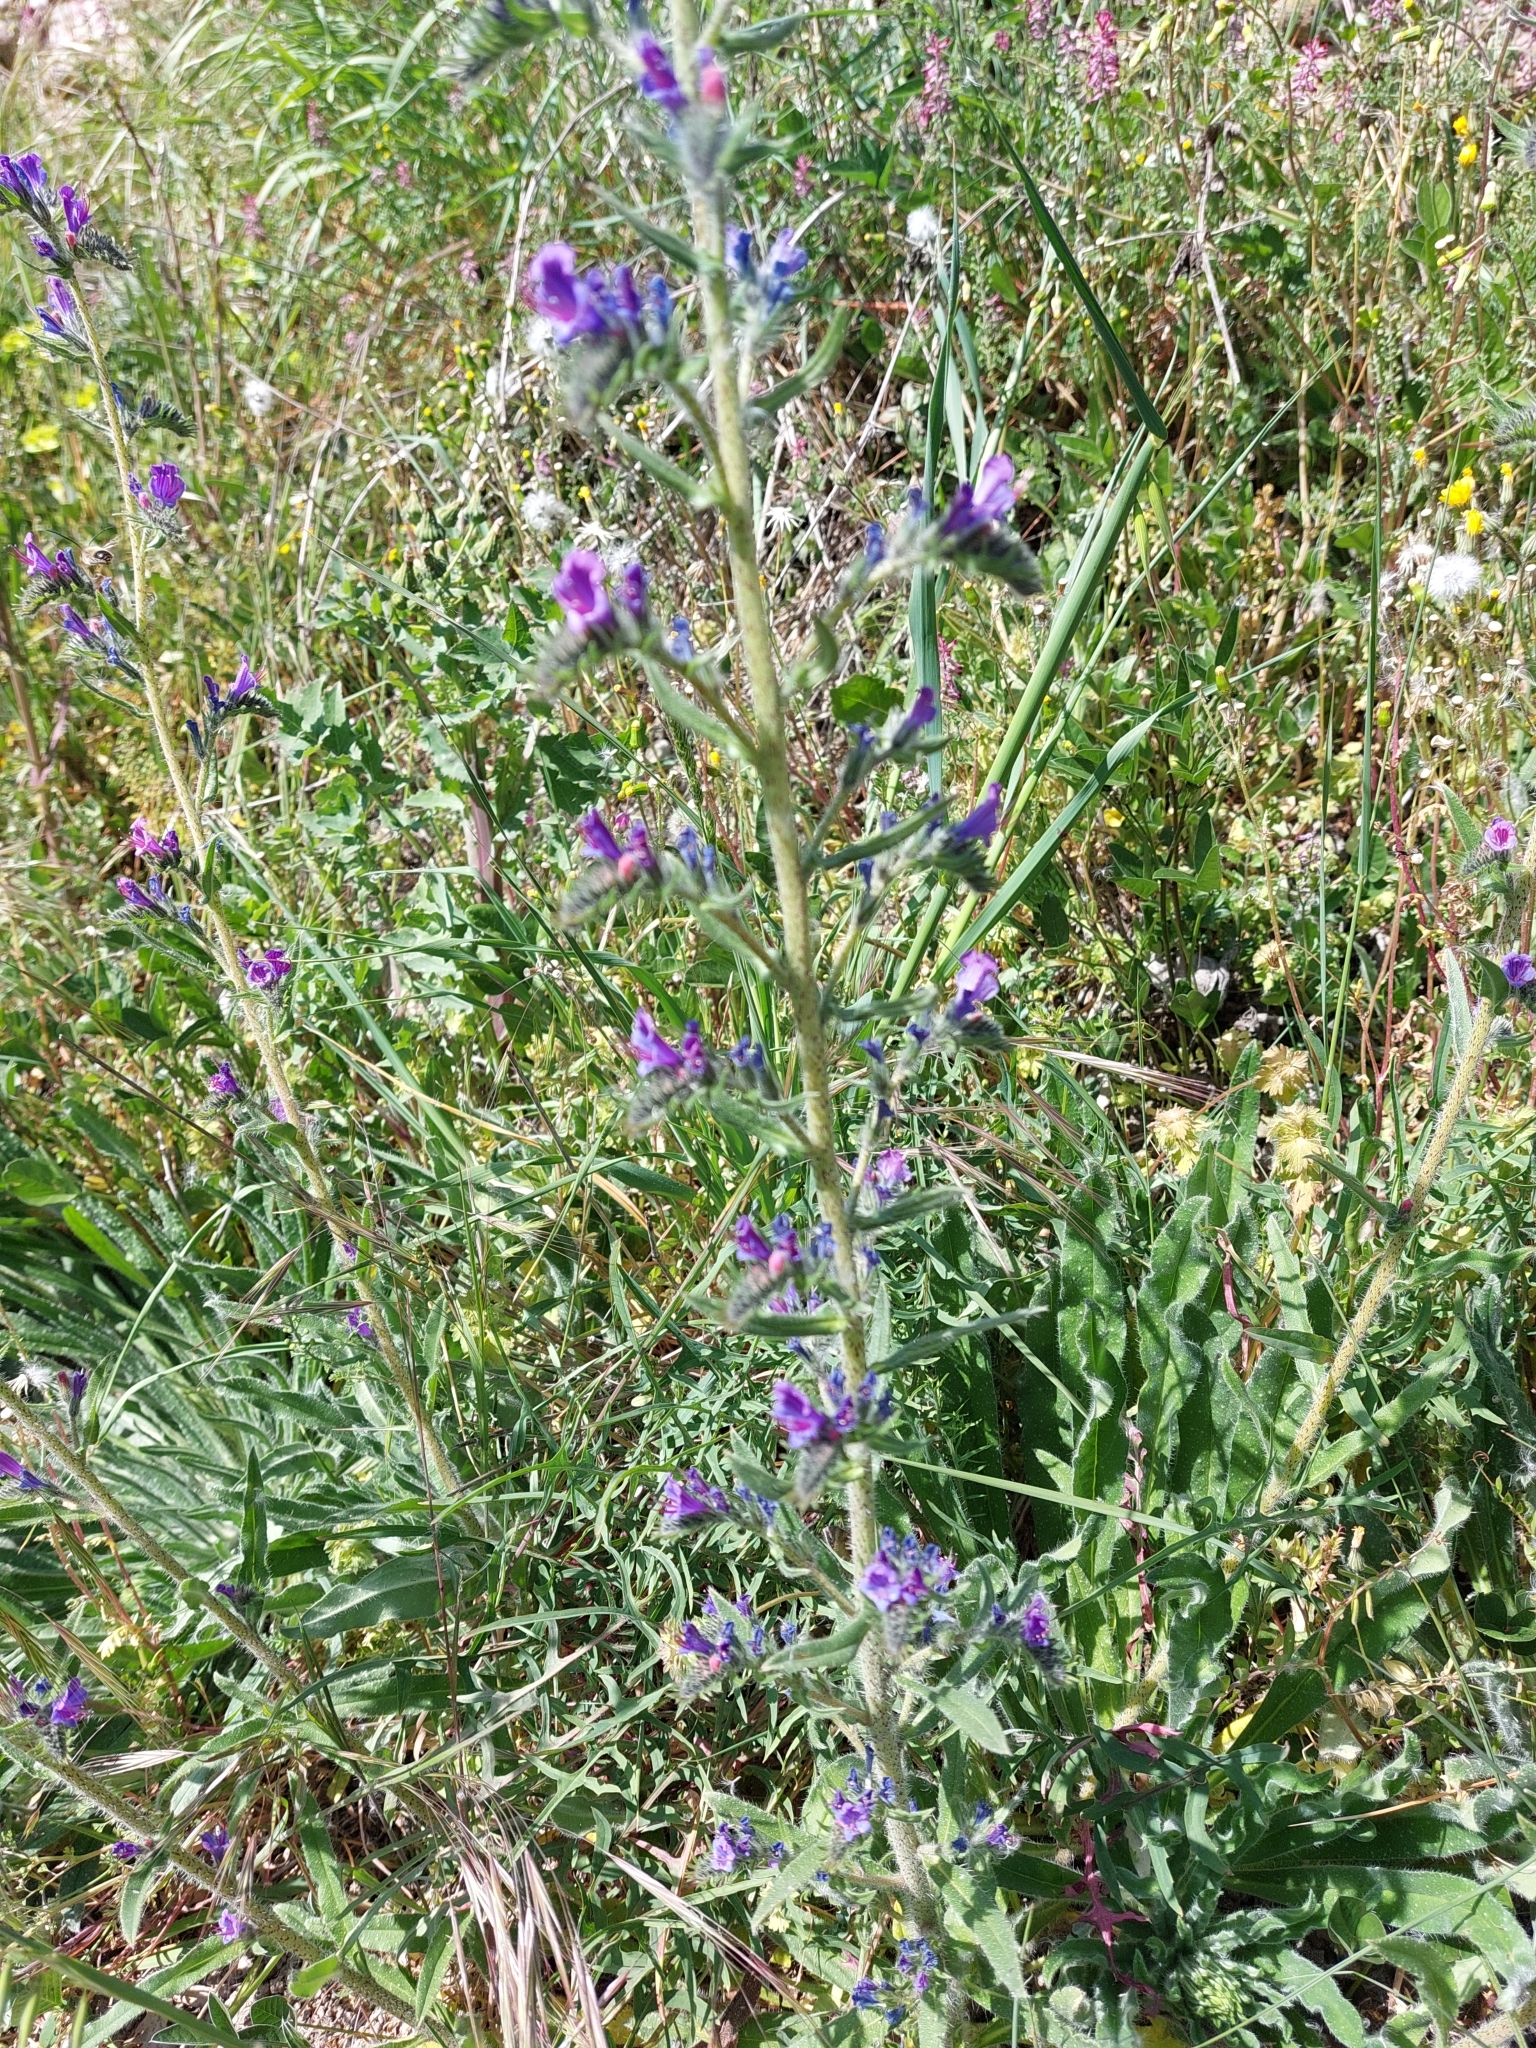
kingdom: Plantae
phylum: Tracheophyta
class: Magnoliopsida
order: Boraginales
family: Boraginaceae
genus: Echium
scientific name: Echium vulgare
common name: Common viper's bugloss
